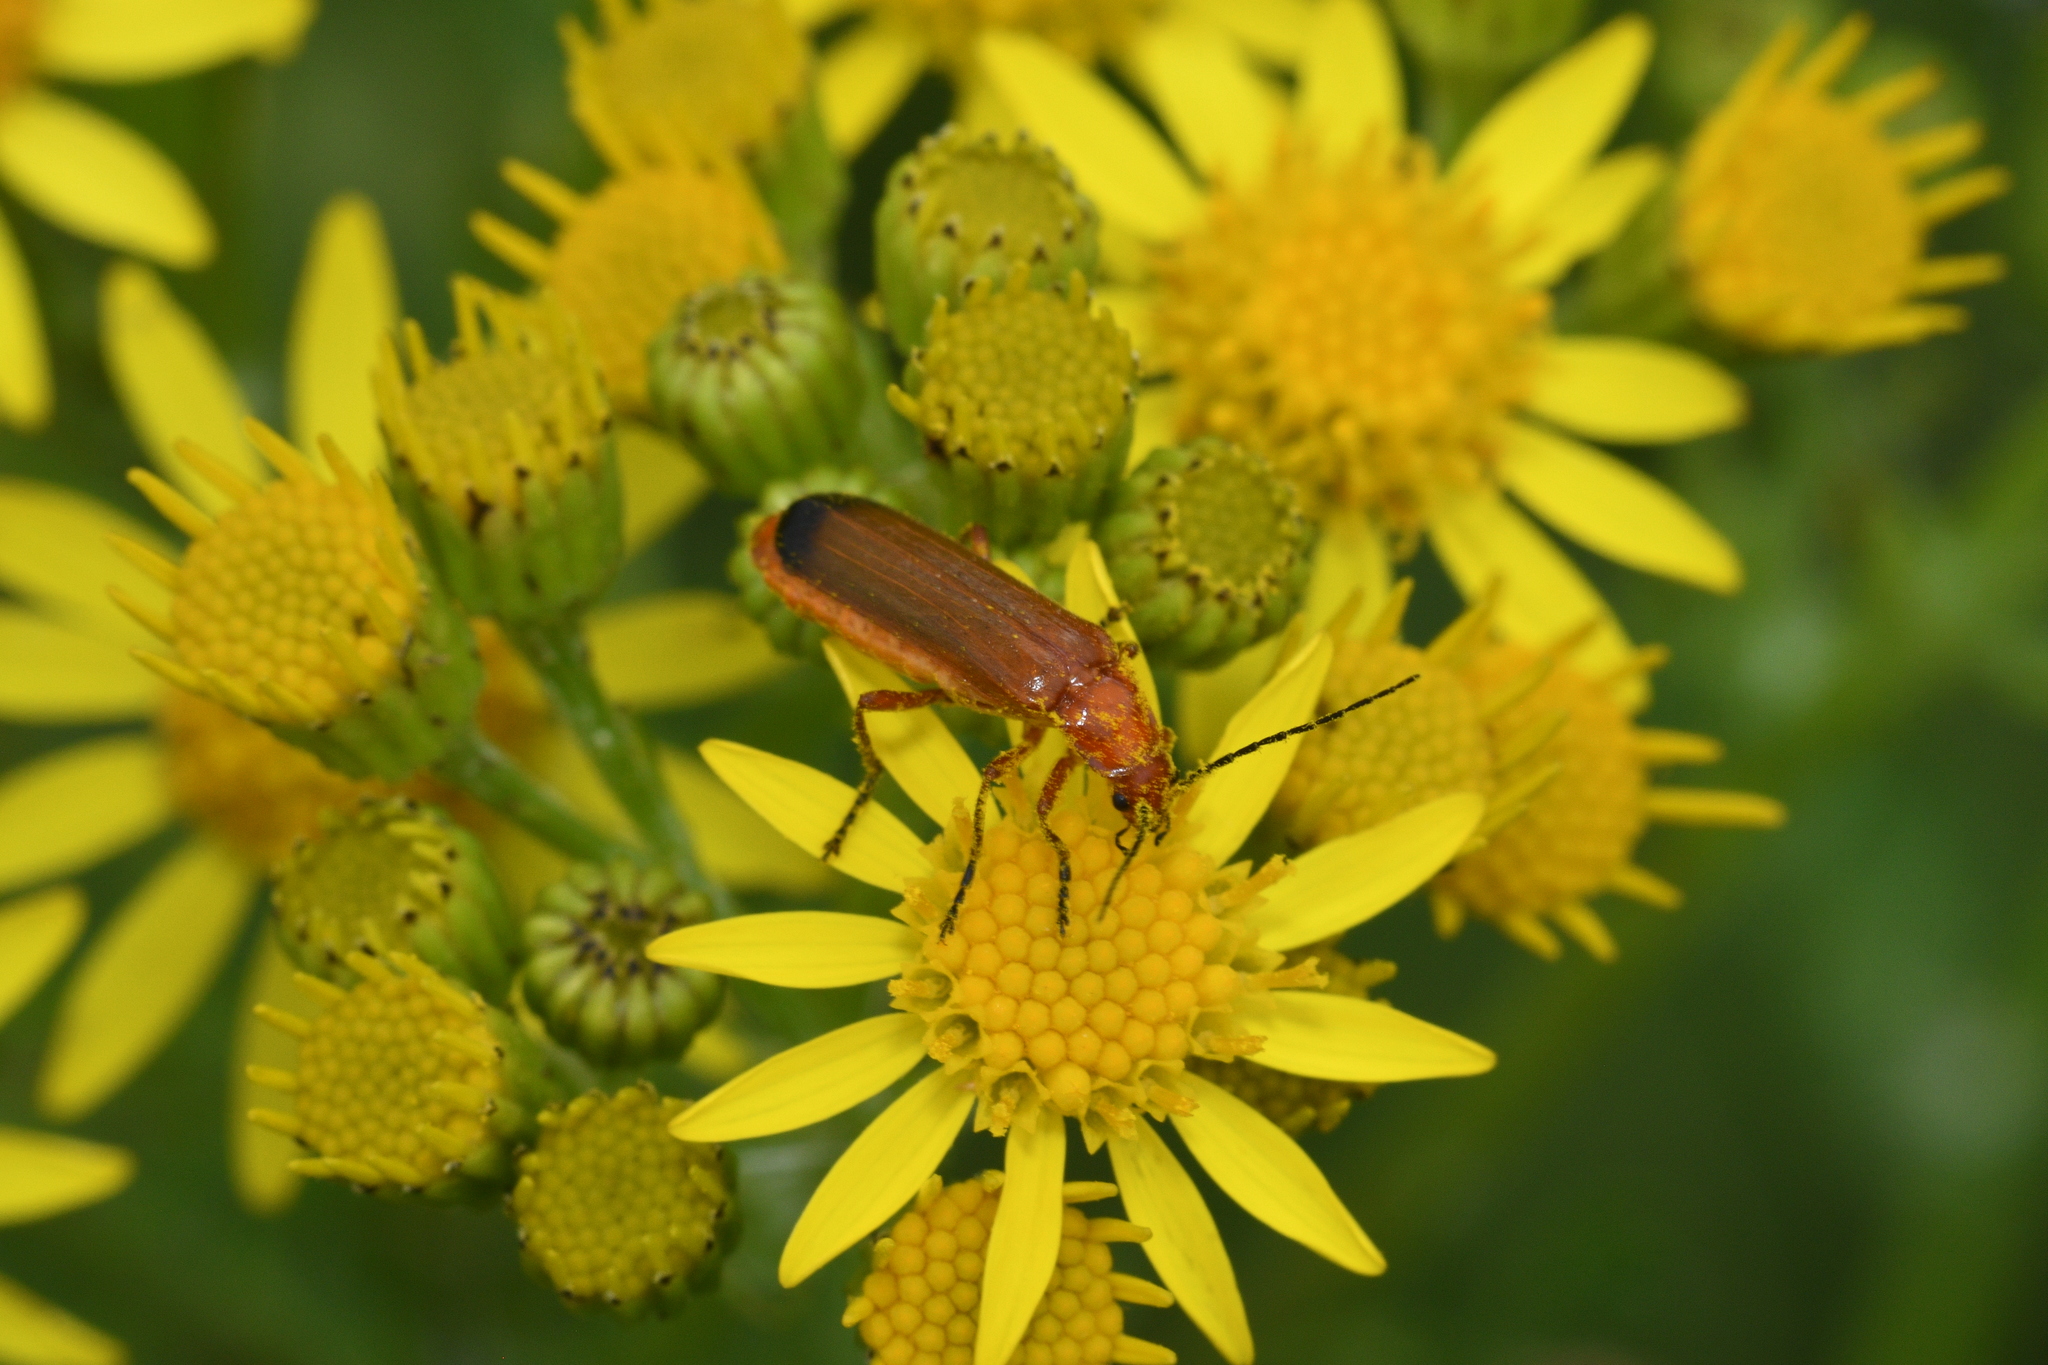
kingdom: Animalia
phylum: Arthropoda
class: Insecta
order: Coleoptera
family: Cantharidae
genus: Rhagonycha
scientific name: Rhagonycha fulva
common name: Common red soldier beetle
